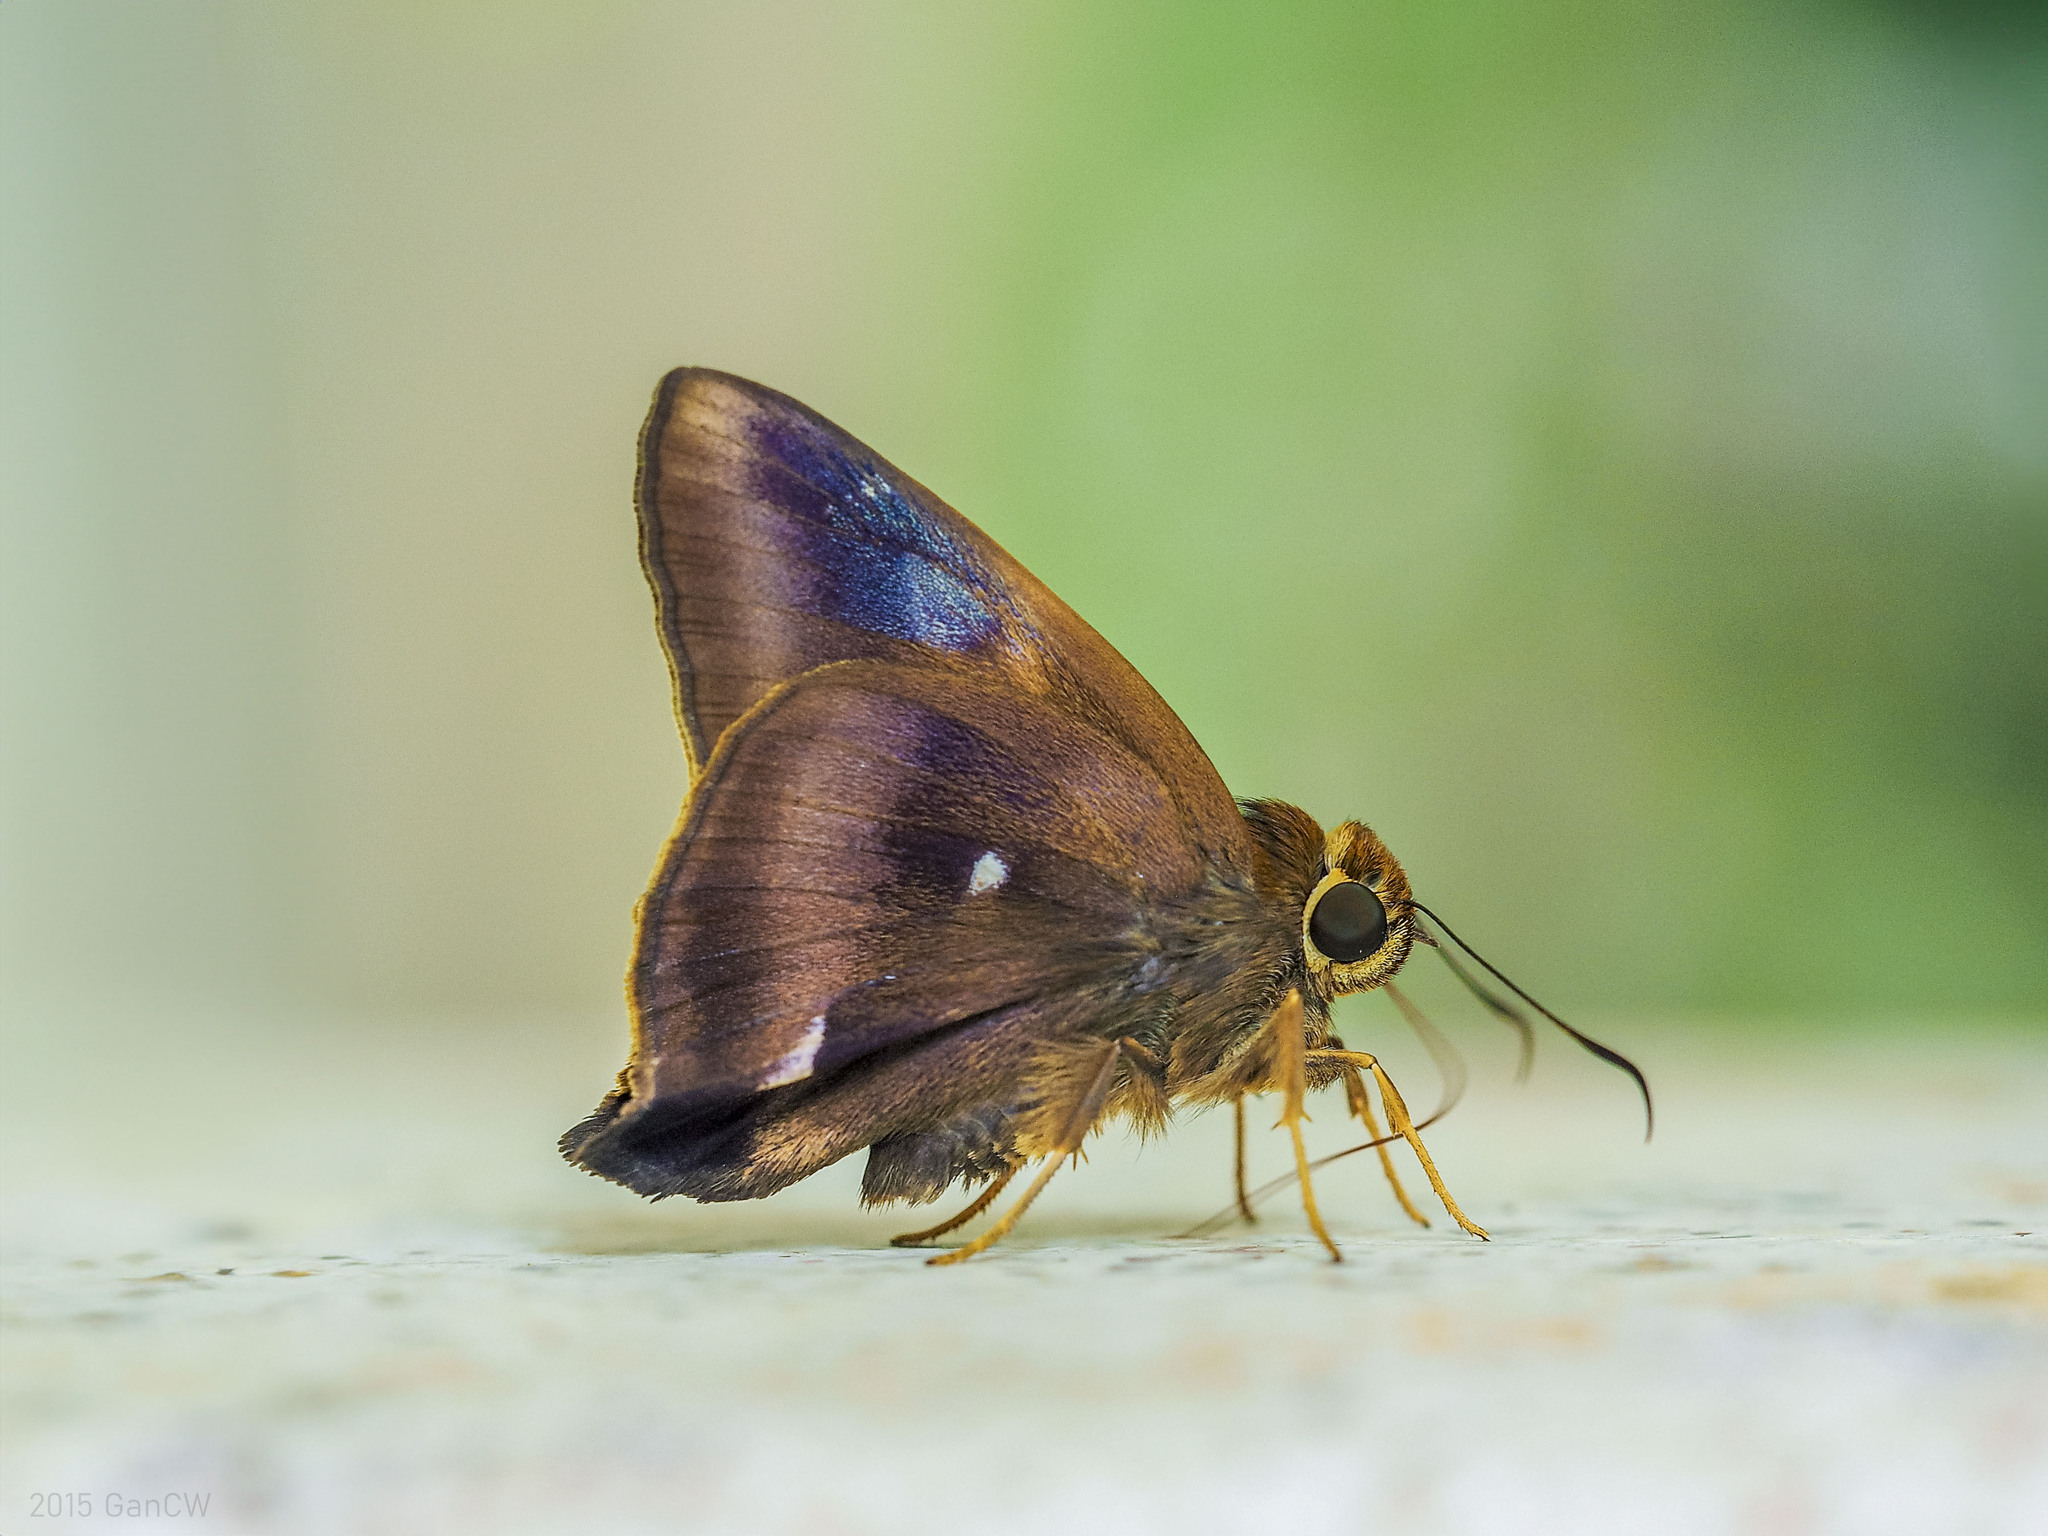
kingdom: Animalia
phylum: Arthropoda
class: Insecta
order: Lepidoptera
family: Hesperiidae
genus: Hasora
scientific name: Hasora badra
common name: Common awl
